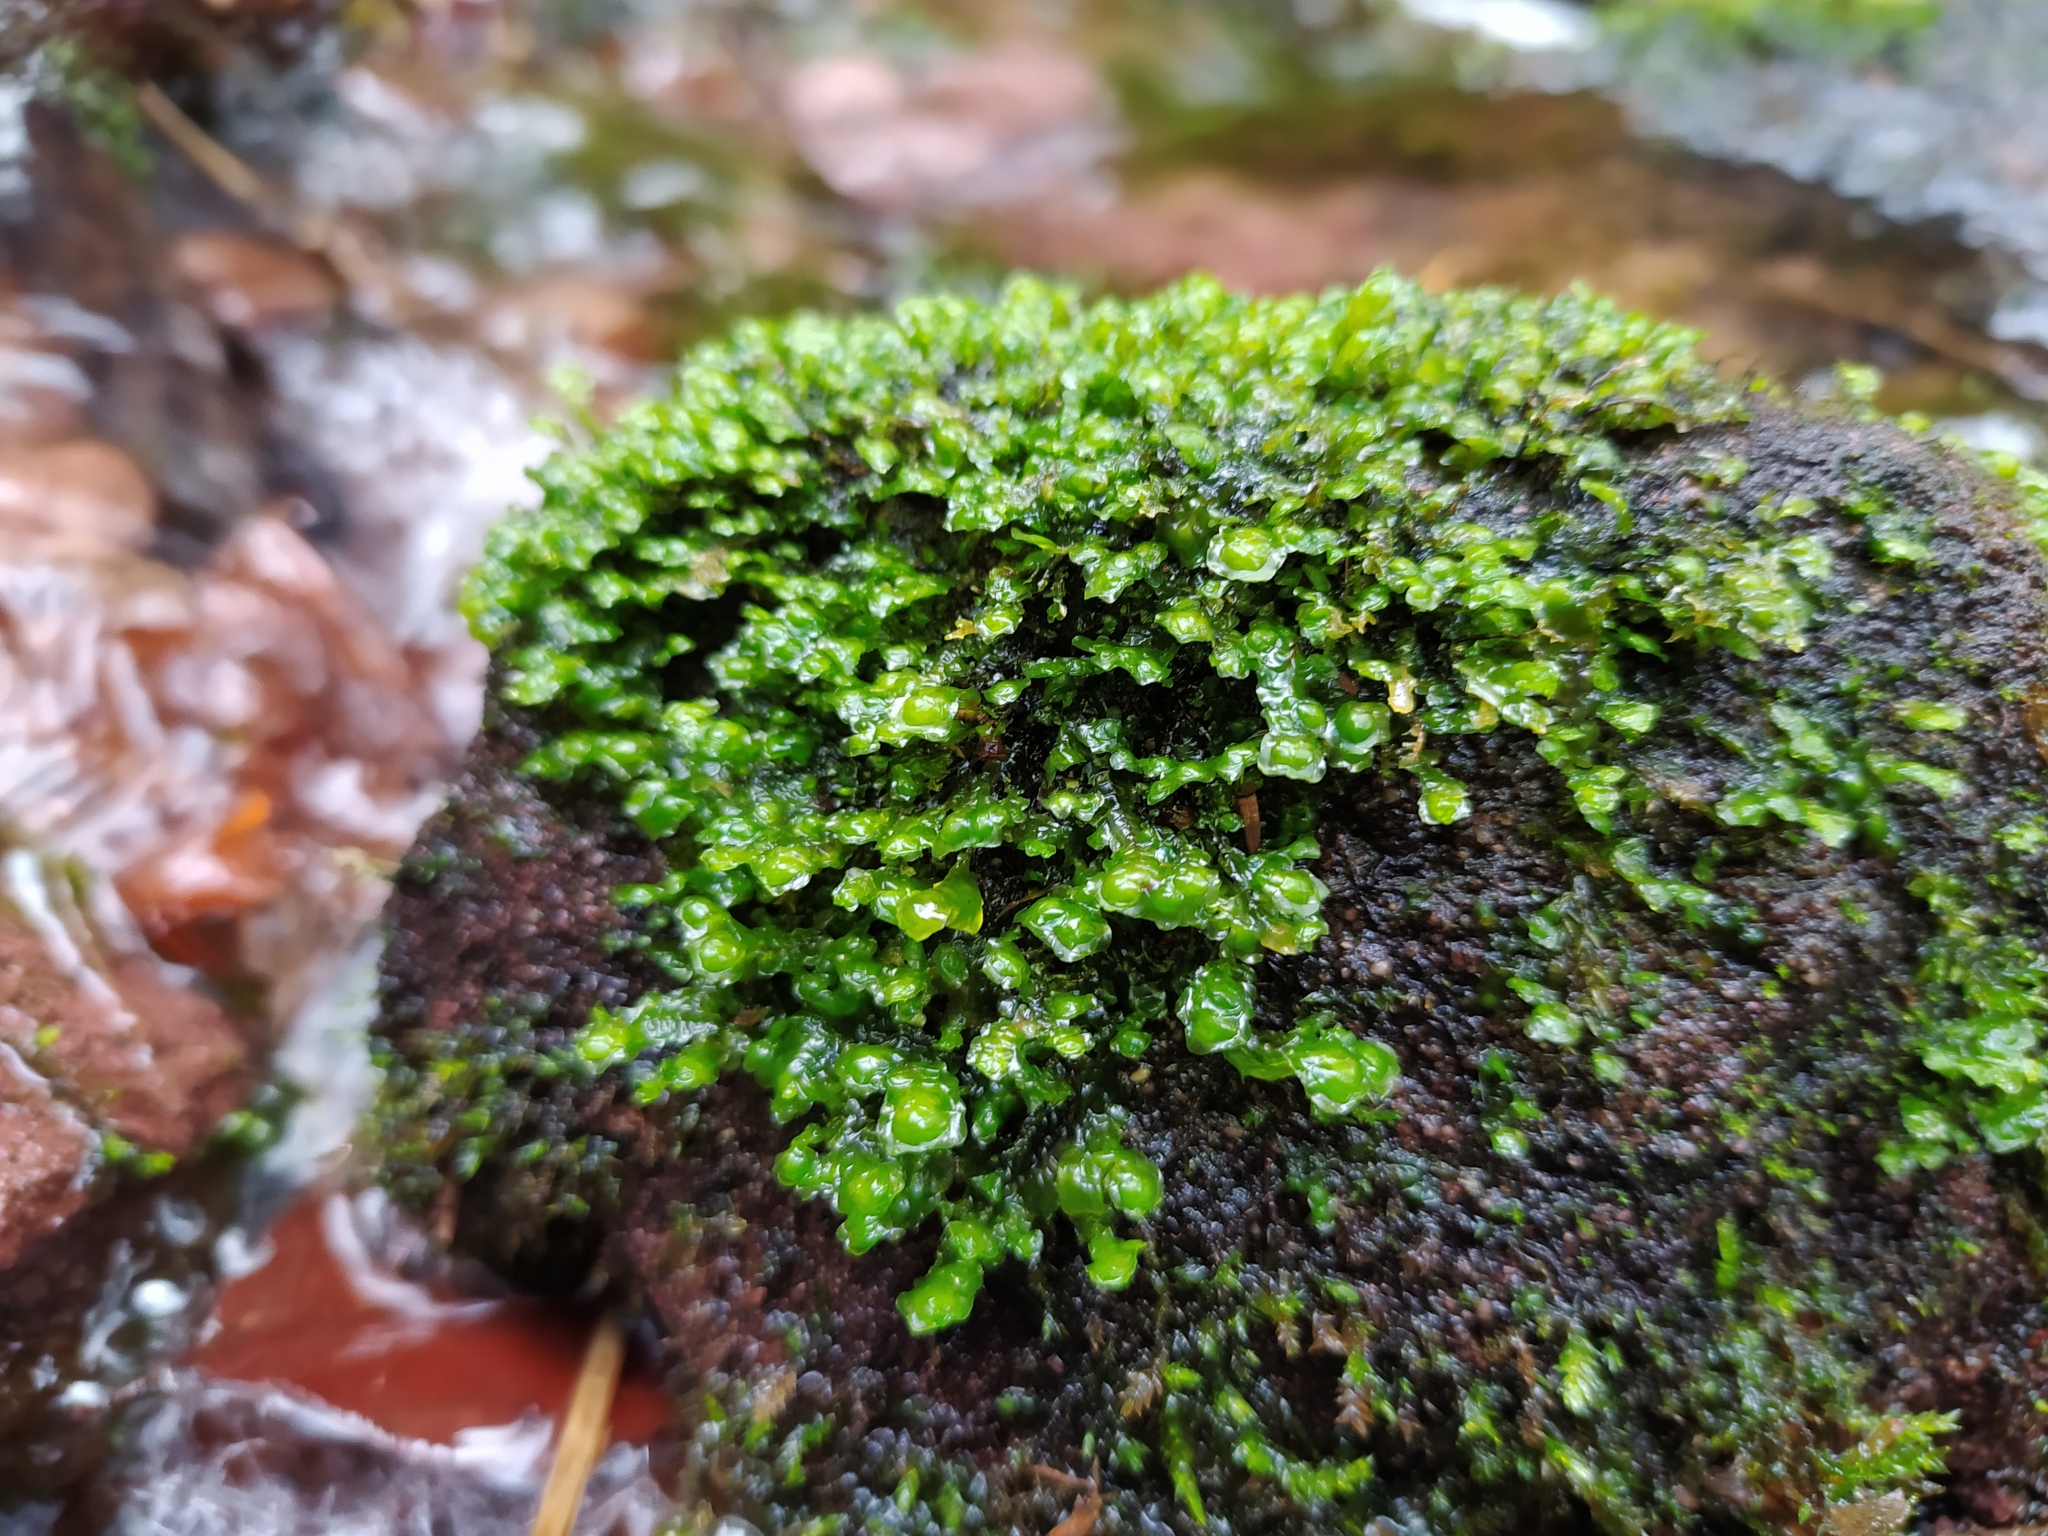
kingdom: Plantae
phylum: Marchantiophyta
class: Jungermanniopsida
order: Jungermanniales
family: Scapaniaceae
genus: Scapania
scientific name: Scapania undulata
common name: Water earwort
